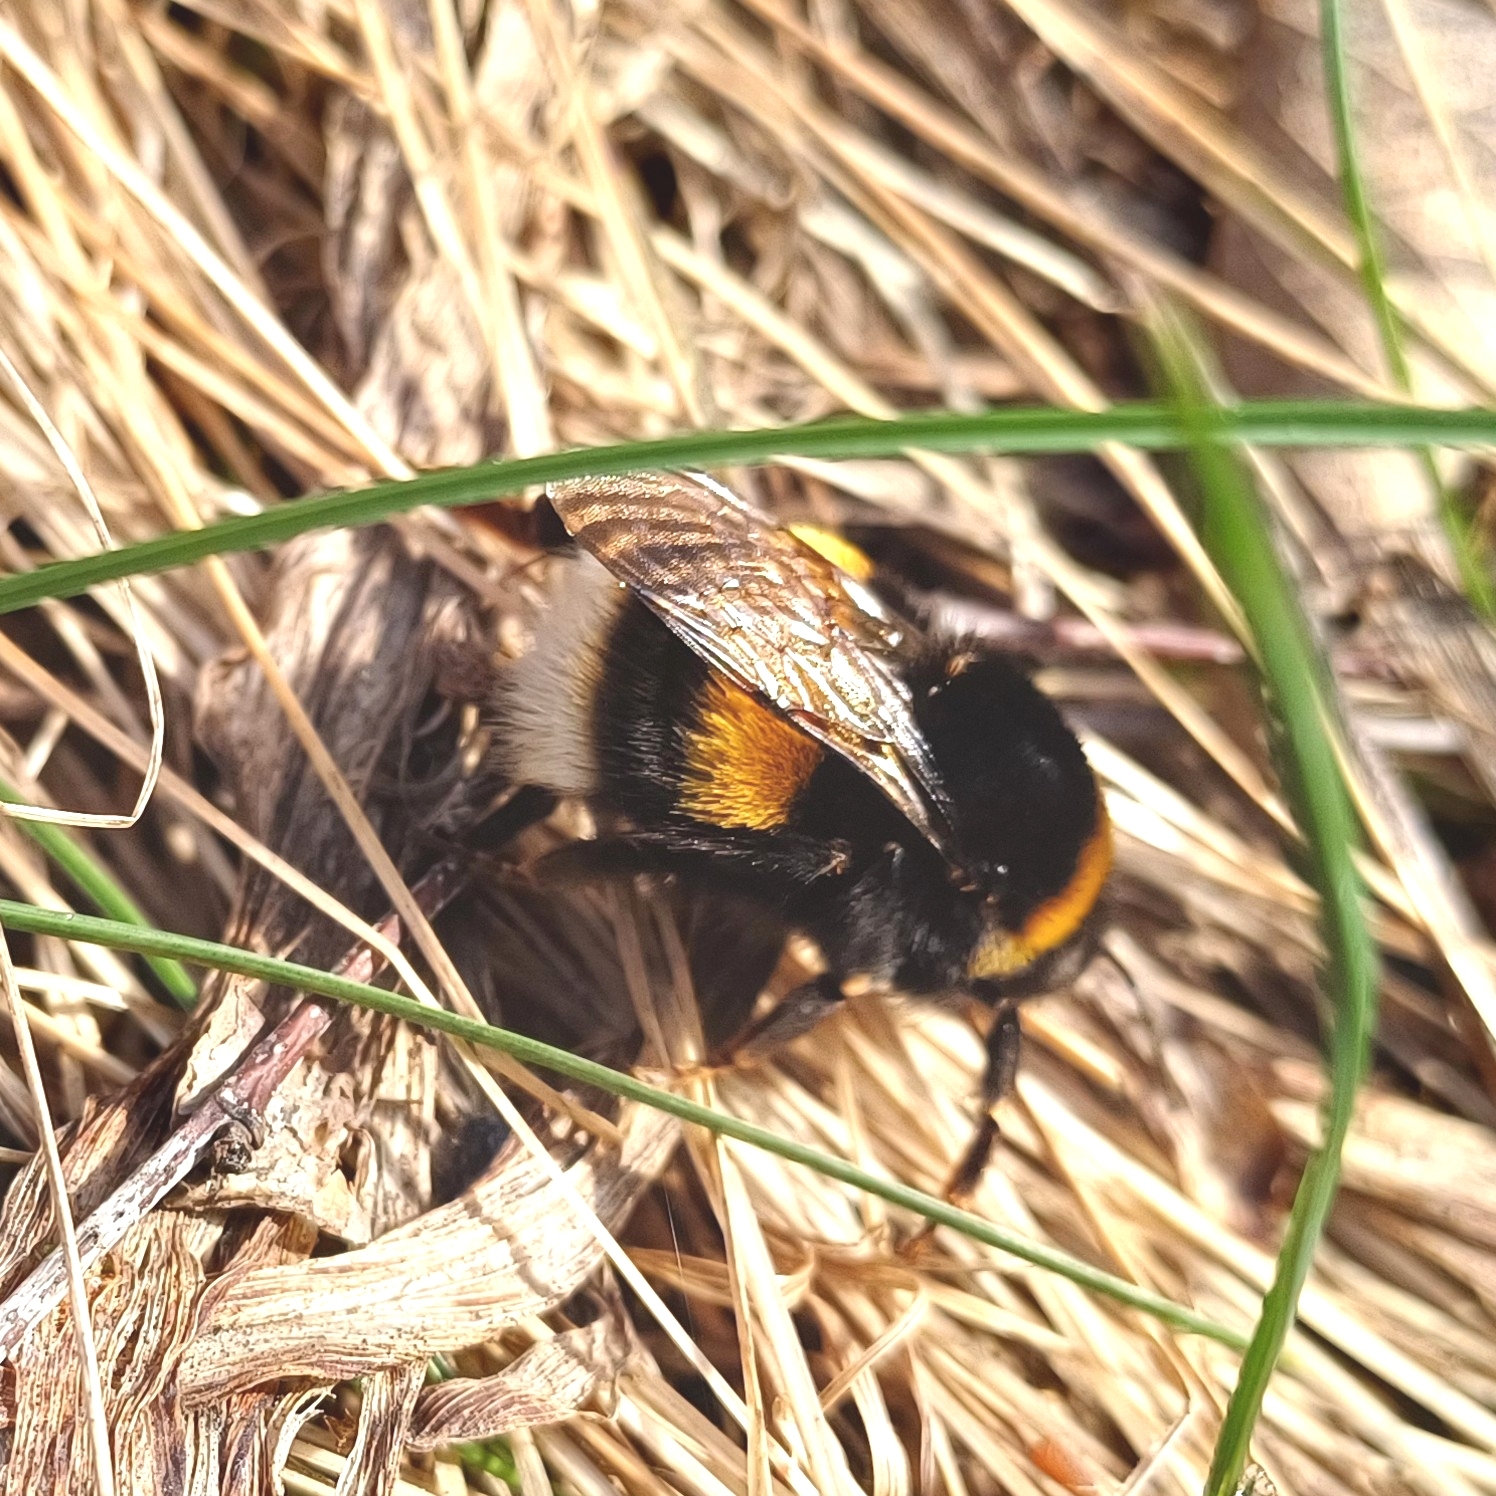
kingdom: Animalia
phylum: Arthropoda
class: Insecta
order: Hymenoptera
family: Apidae
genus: Bombus
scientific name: Bombus
